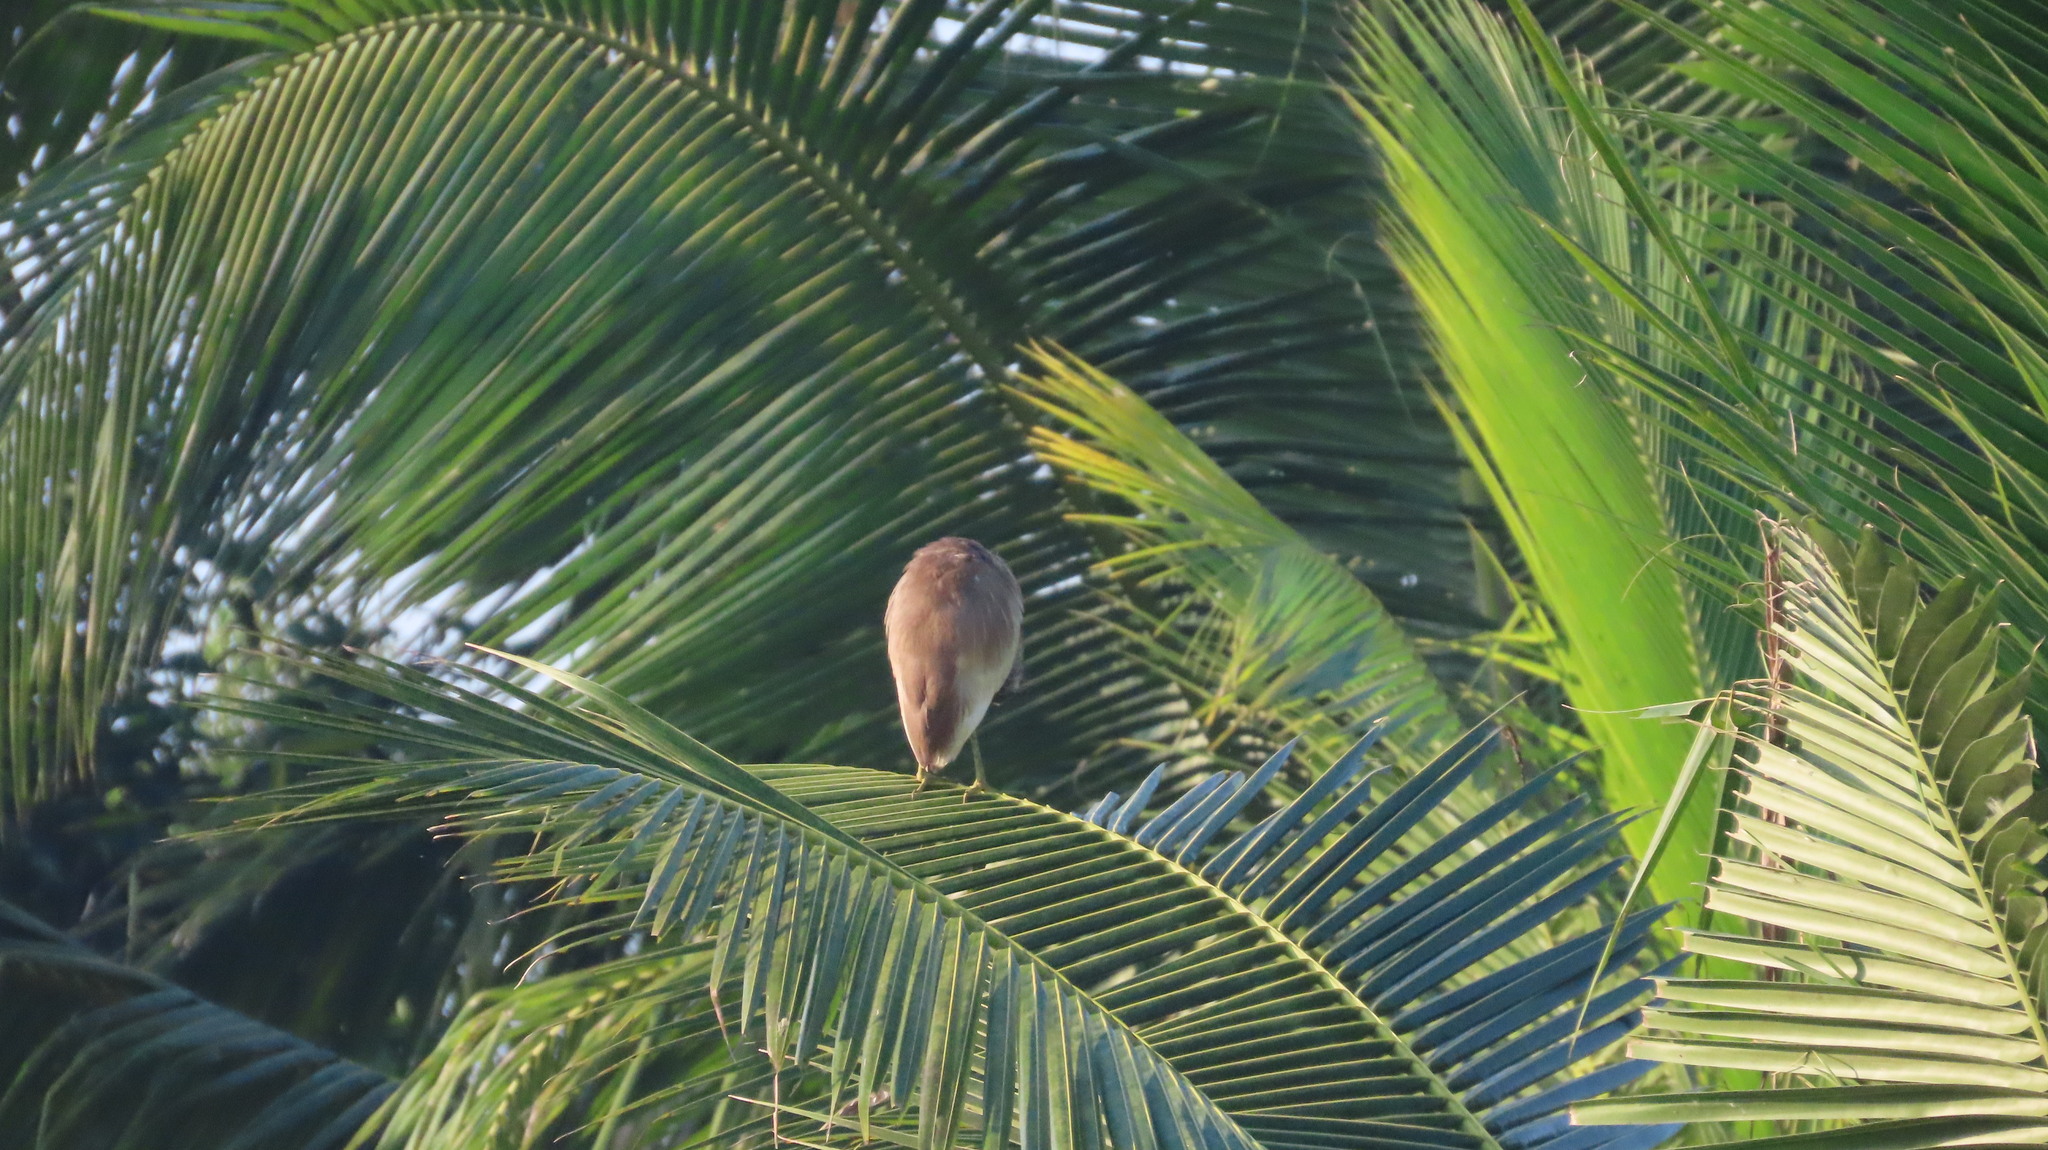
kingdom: Animalia
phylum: Chordata
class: Aves
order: Pelecaniformes
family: Ardeidae
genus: Ardeola
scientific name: Ardeola grayii
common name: Indian pond heron
